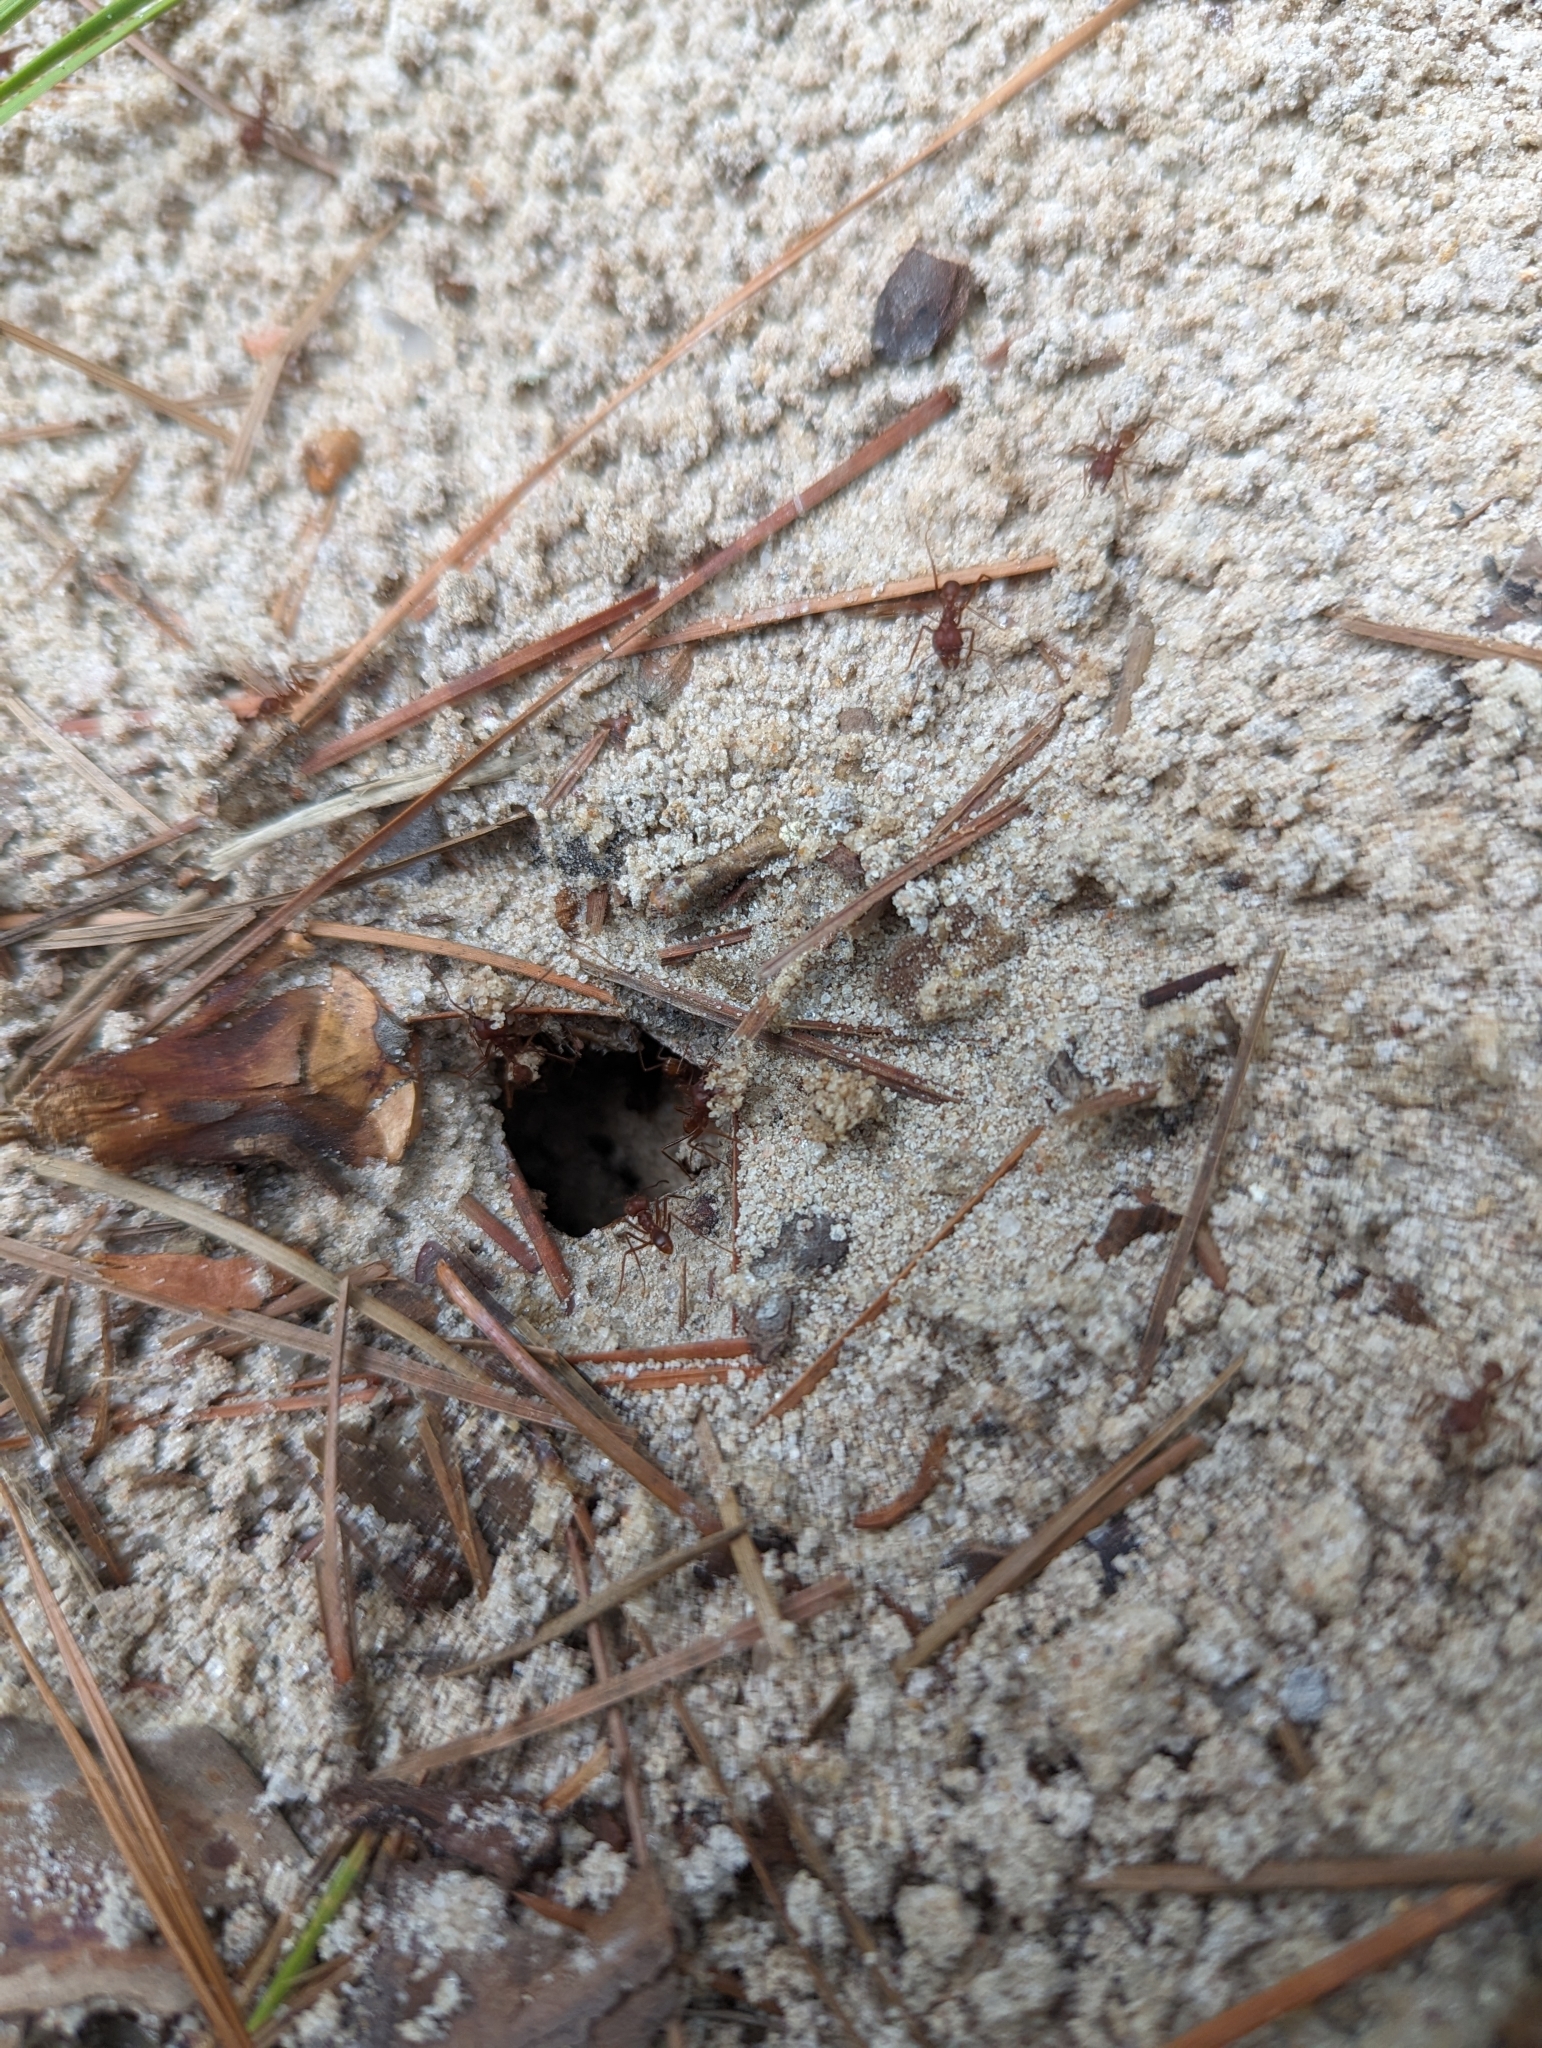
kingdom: Animalia
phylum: Arthropoda
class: Insecta
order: Hymenoptera
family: Formicidae
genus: Atta
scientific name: Atta texana
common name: Texas leafcutting ant
